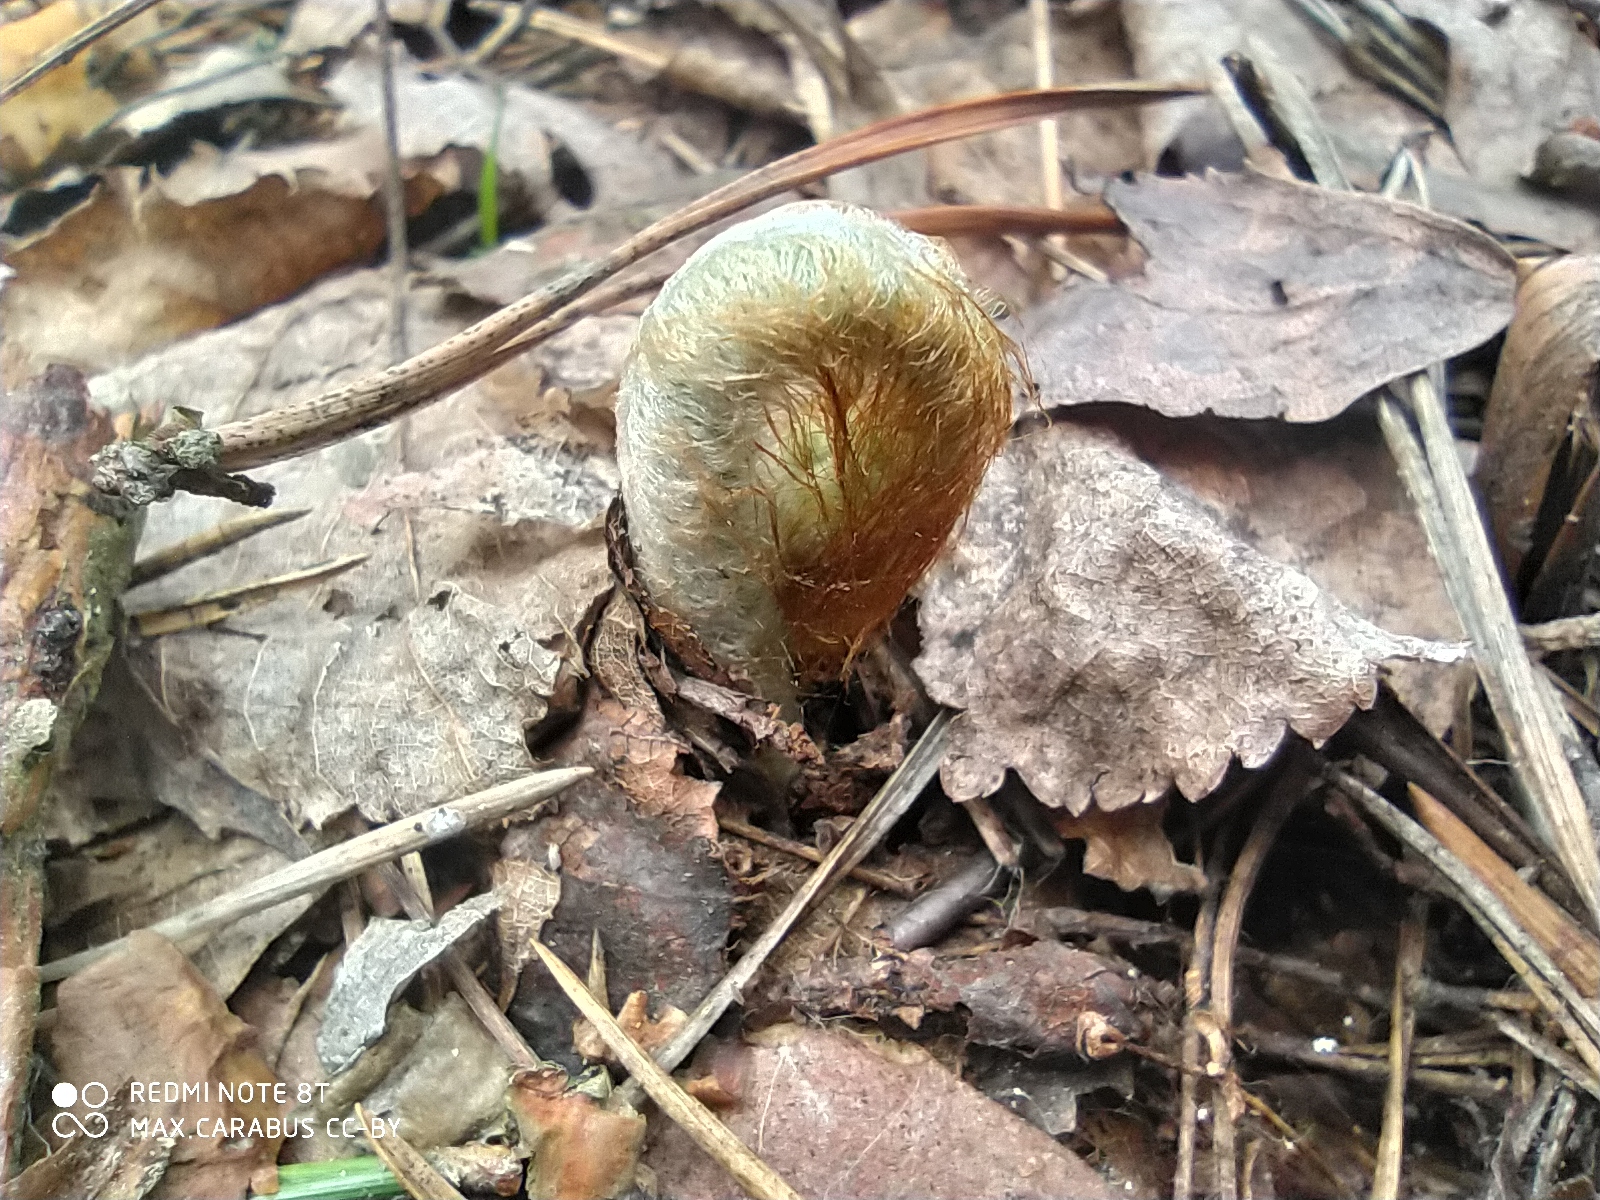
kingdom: Plantae
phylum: Tracheophyta
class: Polypodiopsida
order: Polypodiales
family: Dennstaedtiaceae
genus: Pteridium
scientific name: Pteridium aquilinum
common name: Bracken
